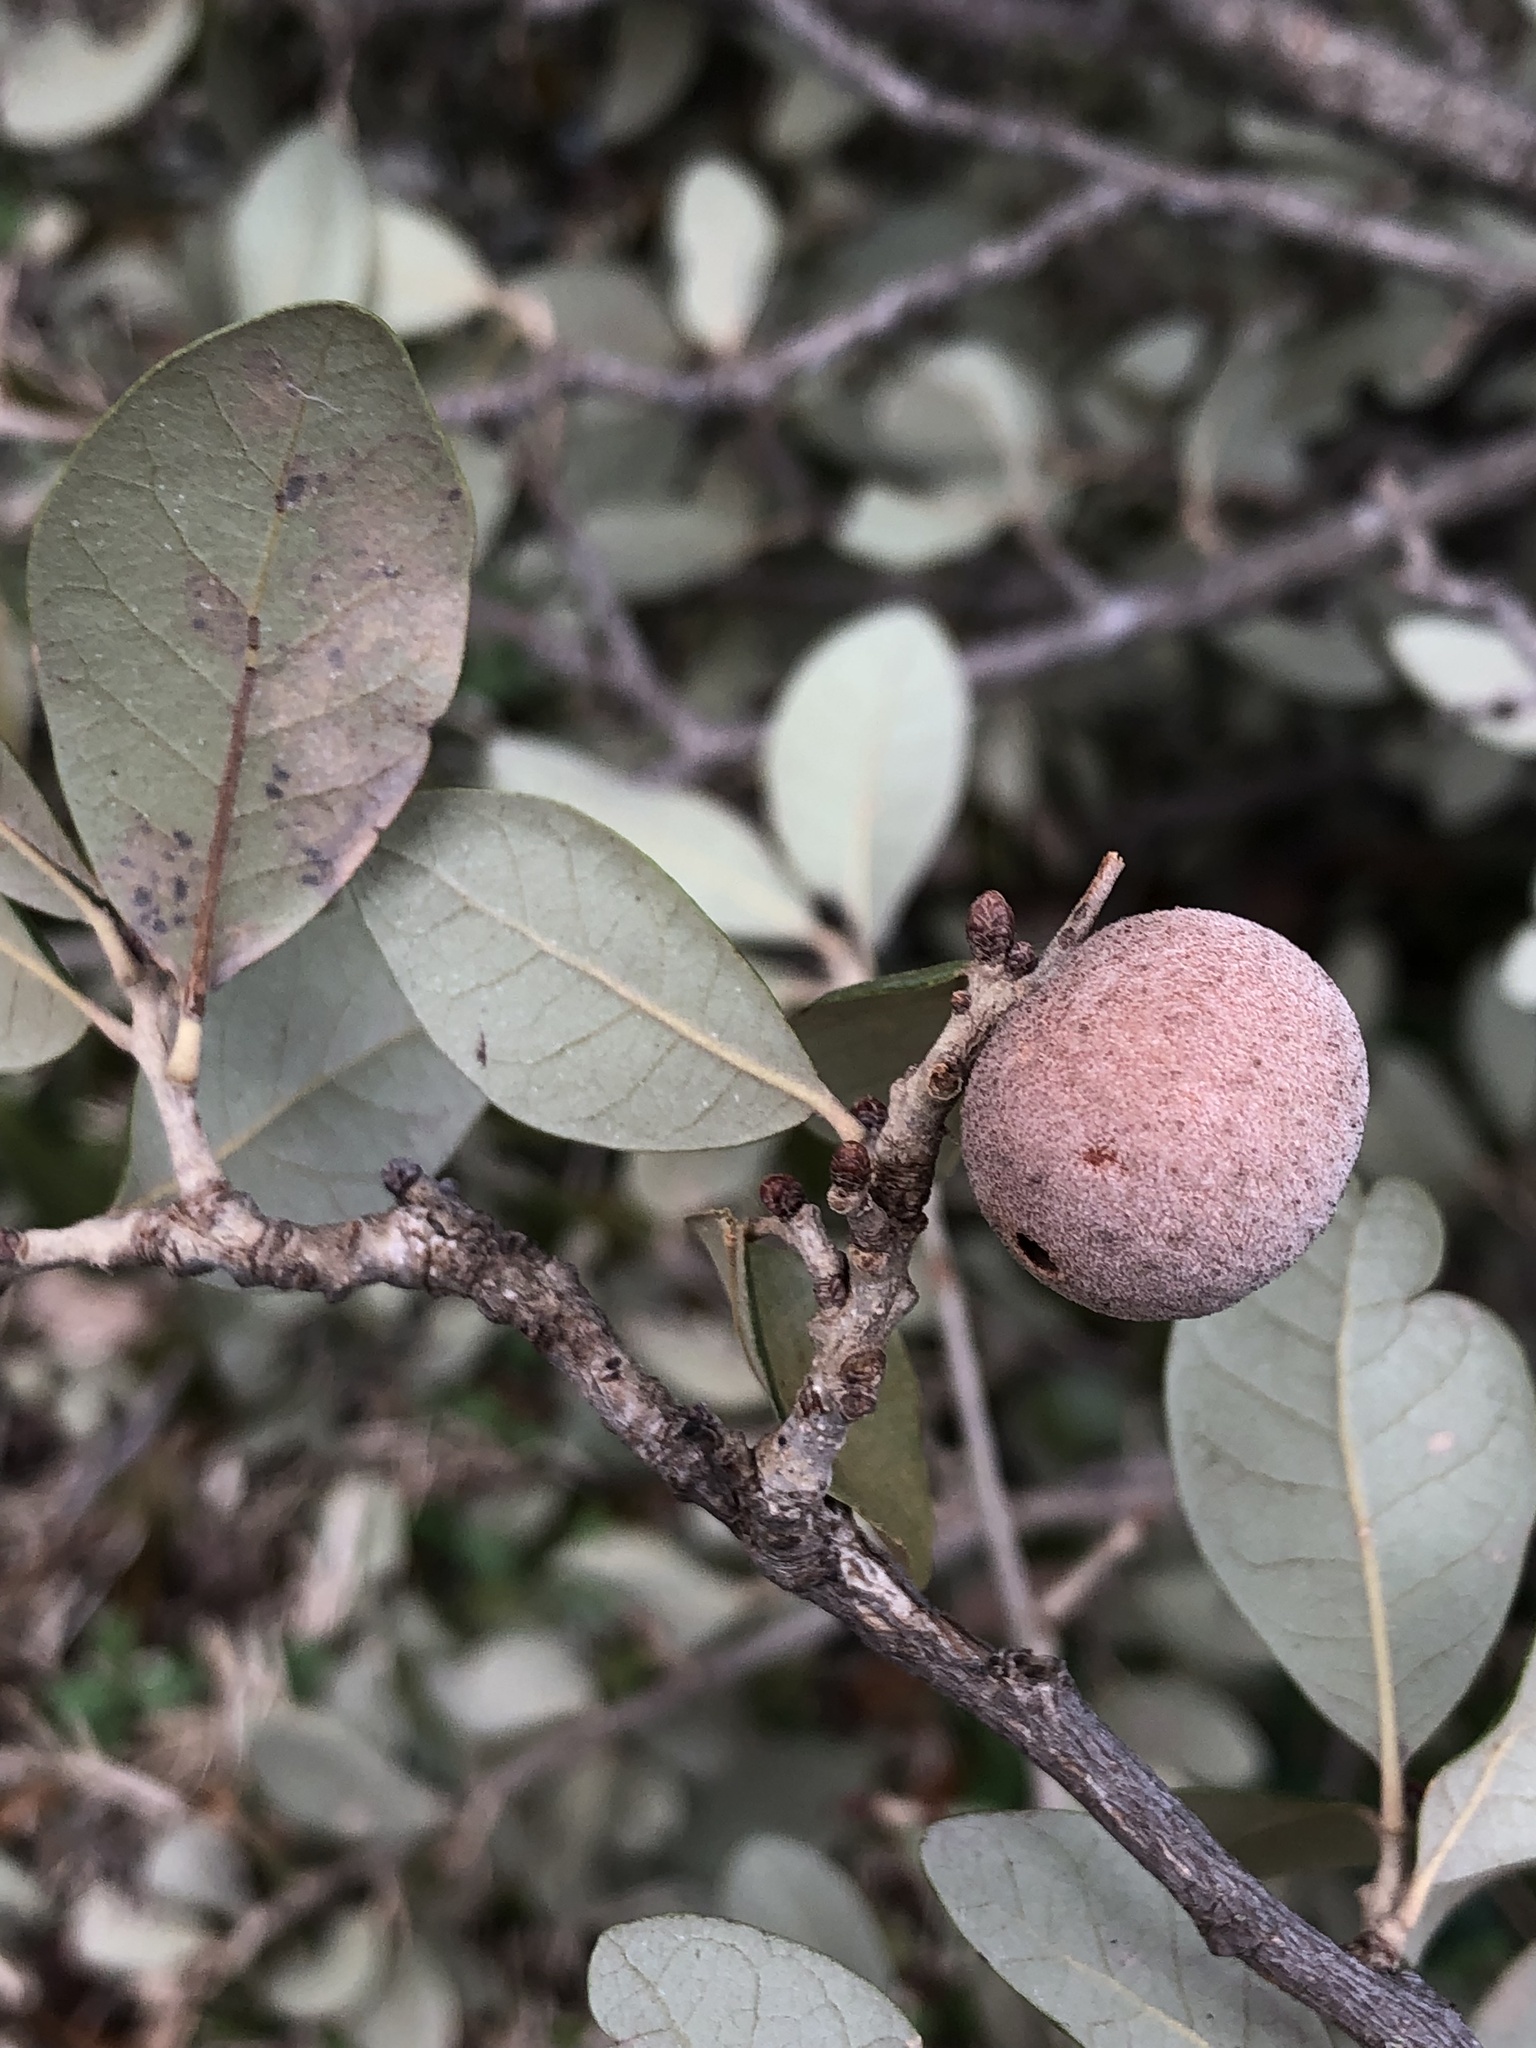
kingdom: Animalia
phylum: Arthropoda
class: Insecta
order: Hymenoptera
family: Cynipidae
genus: Disholcaspis
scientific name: Disholcaspis
